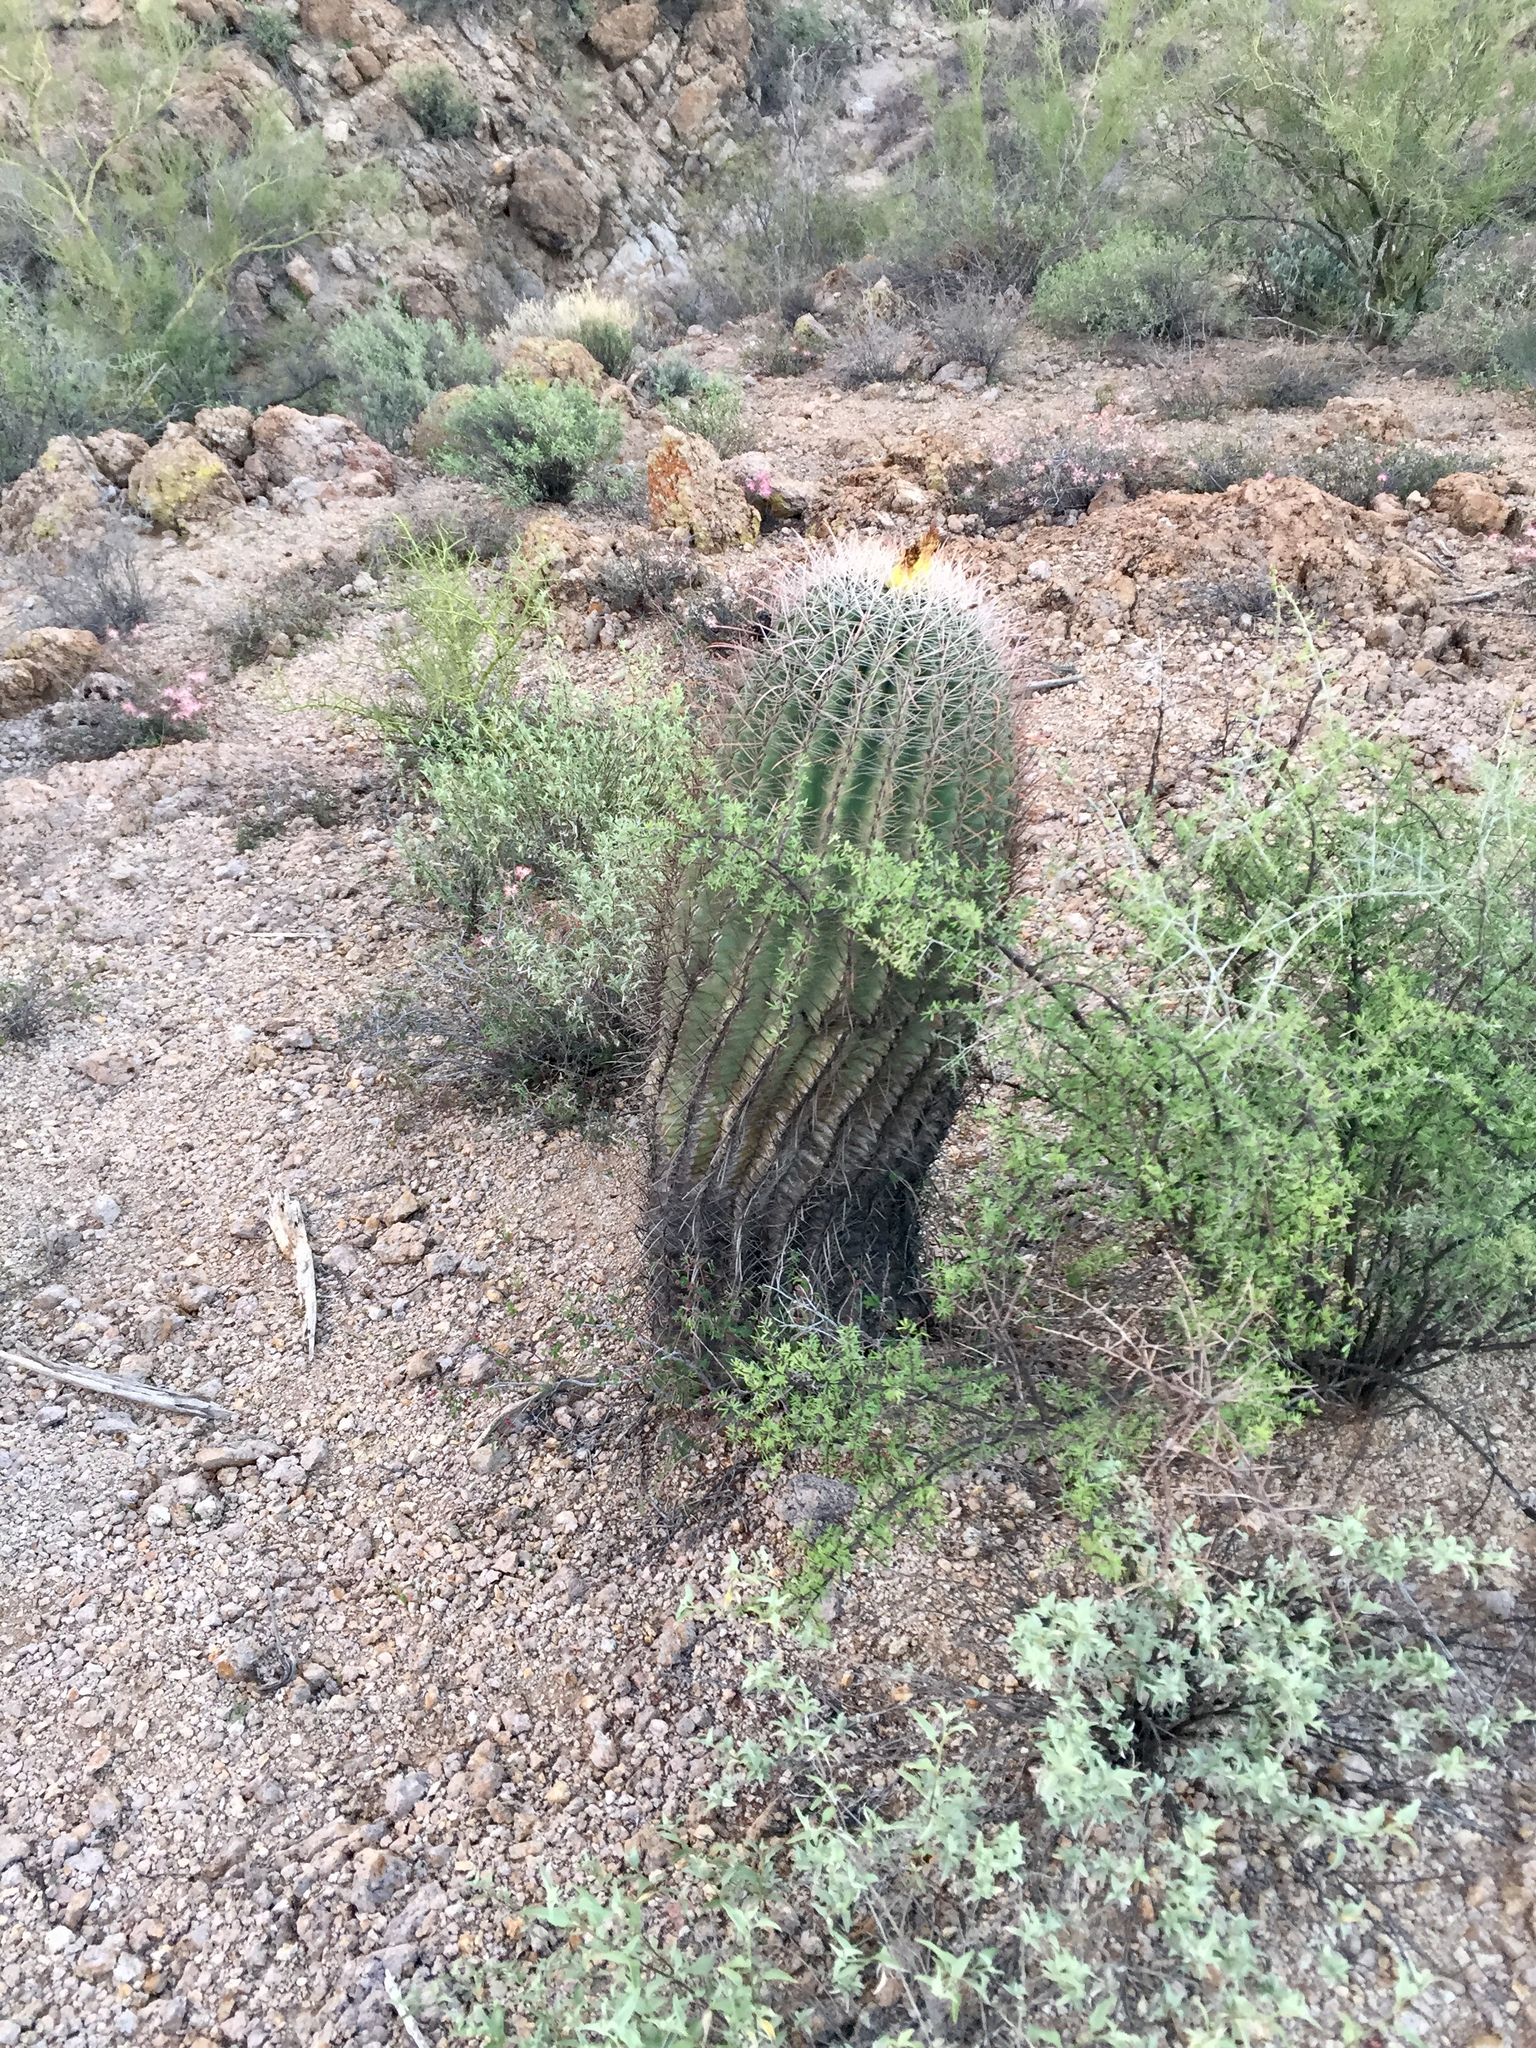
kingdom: Plantae
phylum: Tracheophyta
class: Magnoliopsida
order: Caryophyllales
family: Cactaceae
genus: Ferocactus
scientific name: Ferocactus wislizeni
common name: Candy barrel cactus
